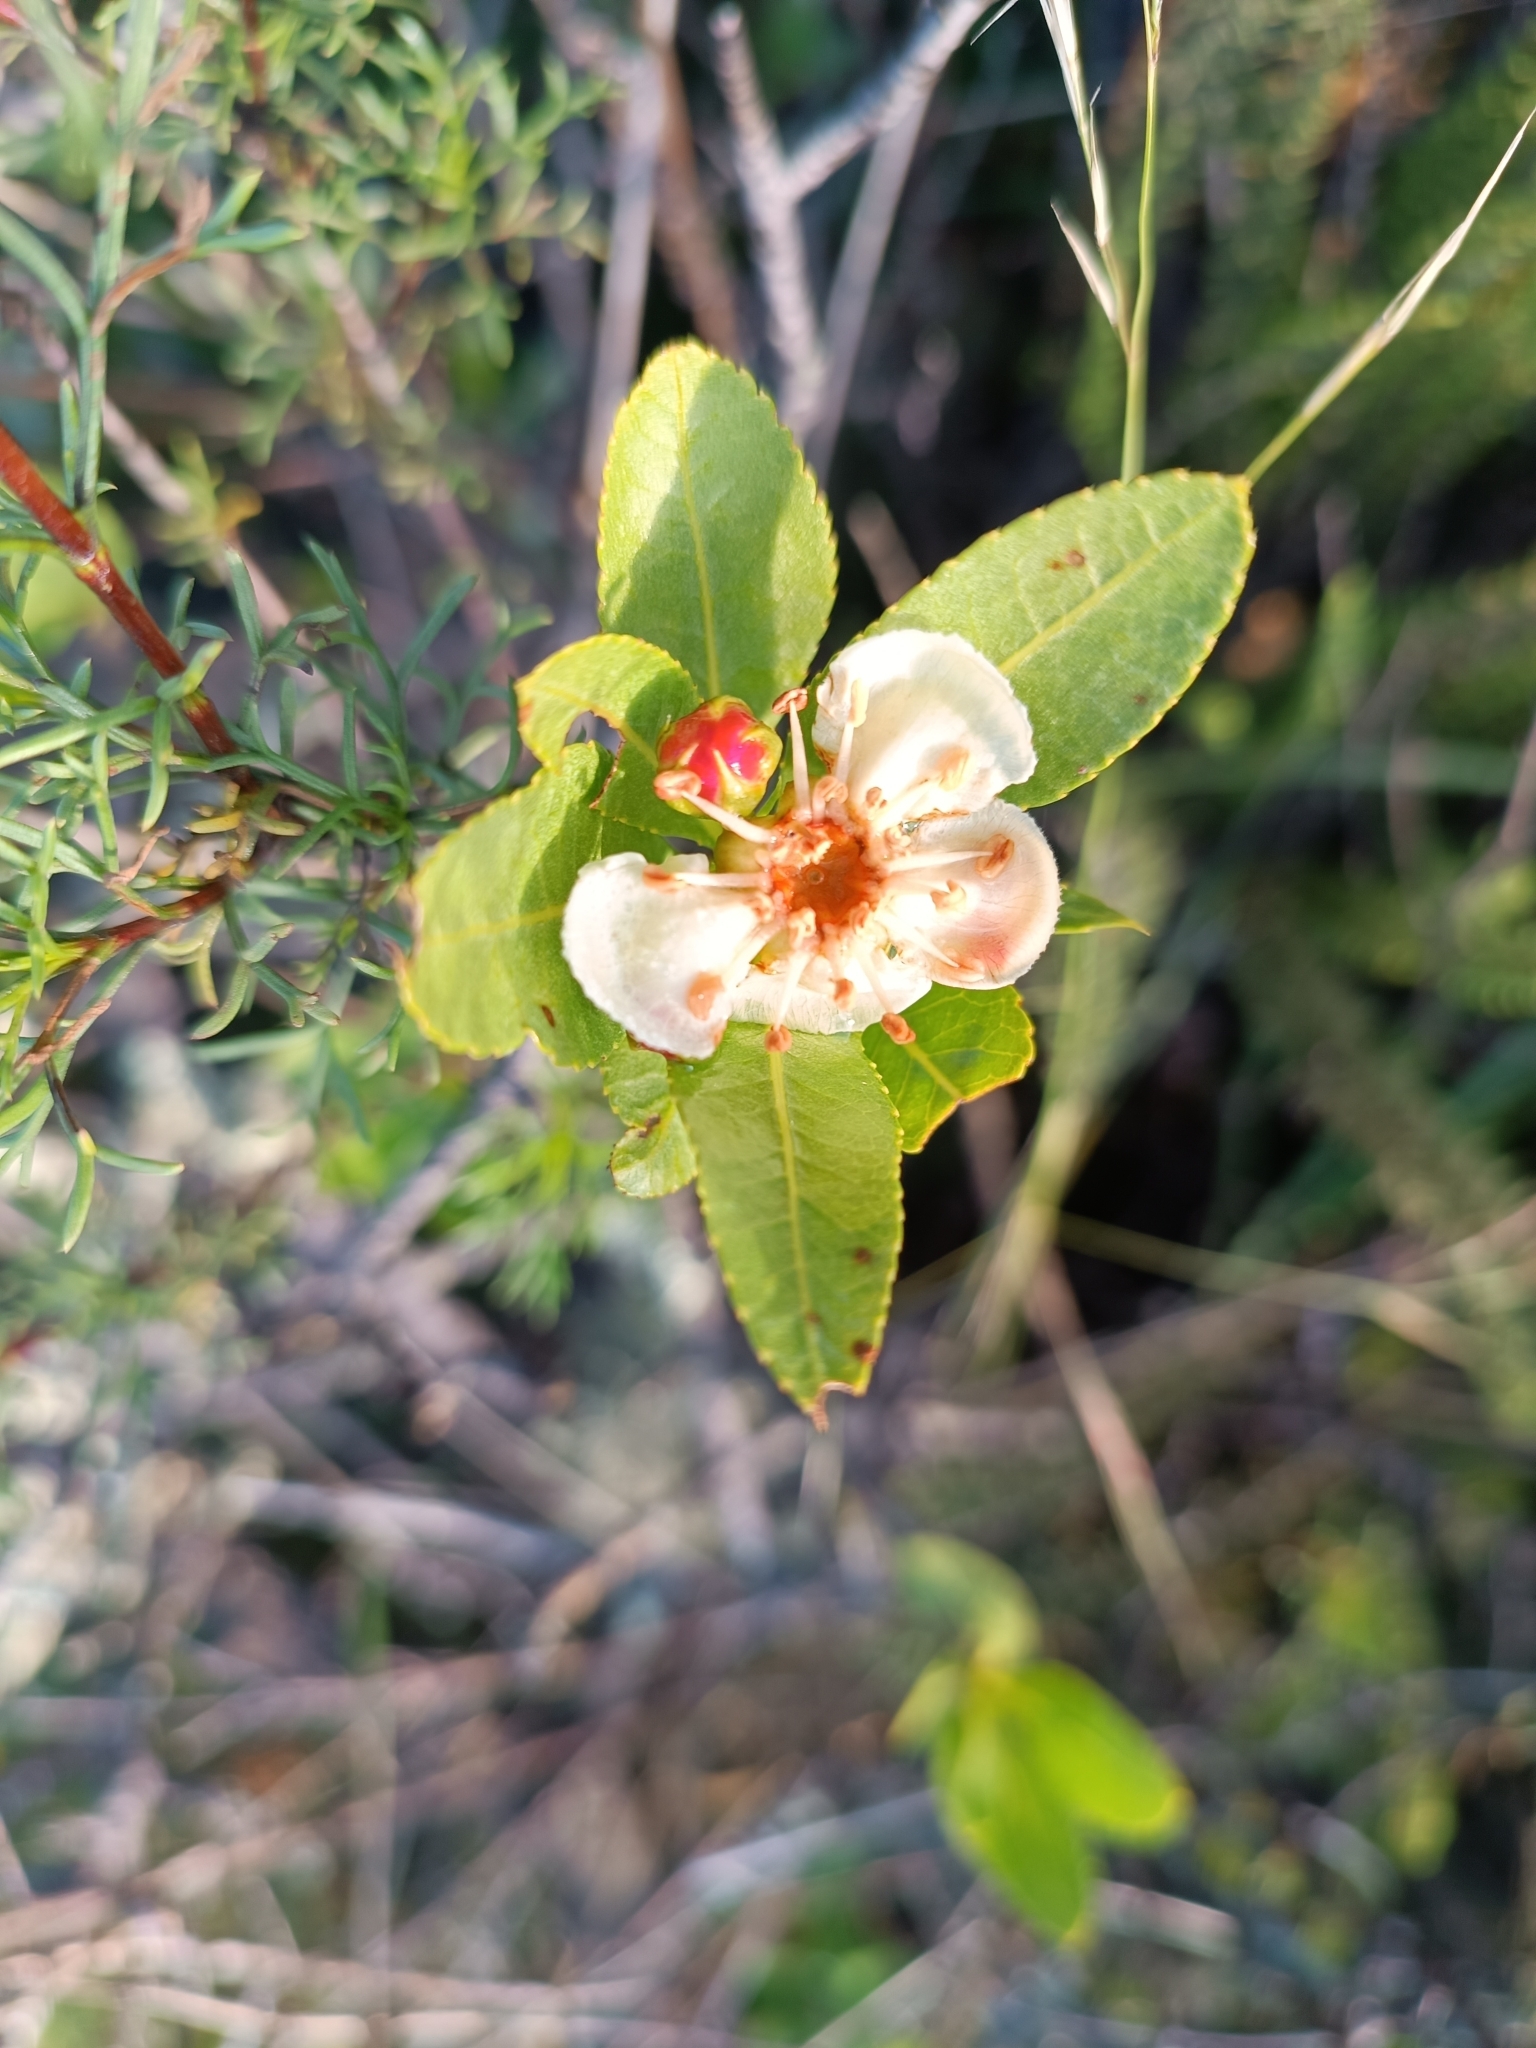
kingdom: Plantae
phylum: Tracheophyta
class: Magnoliopsida
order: Rosales
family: Rosaceae
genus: Kageneckia
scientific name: Kageneckia lanceolata
